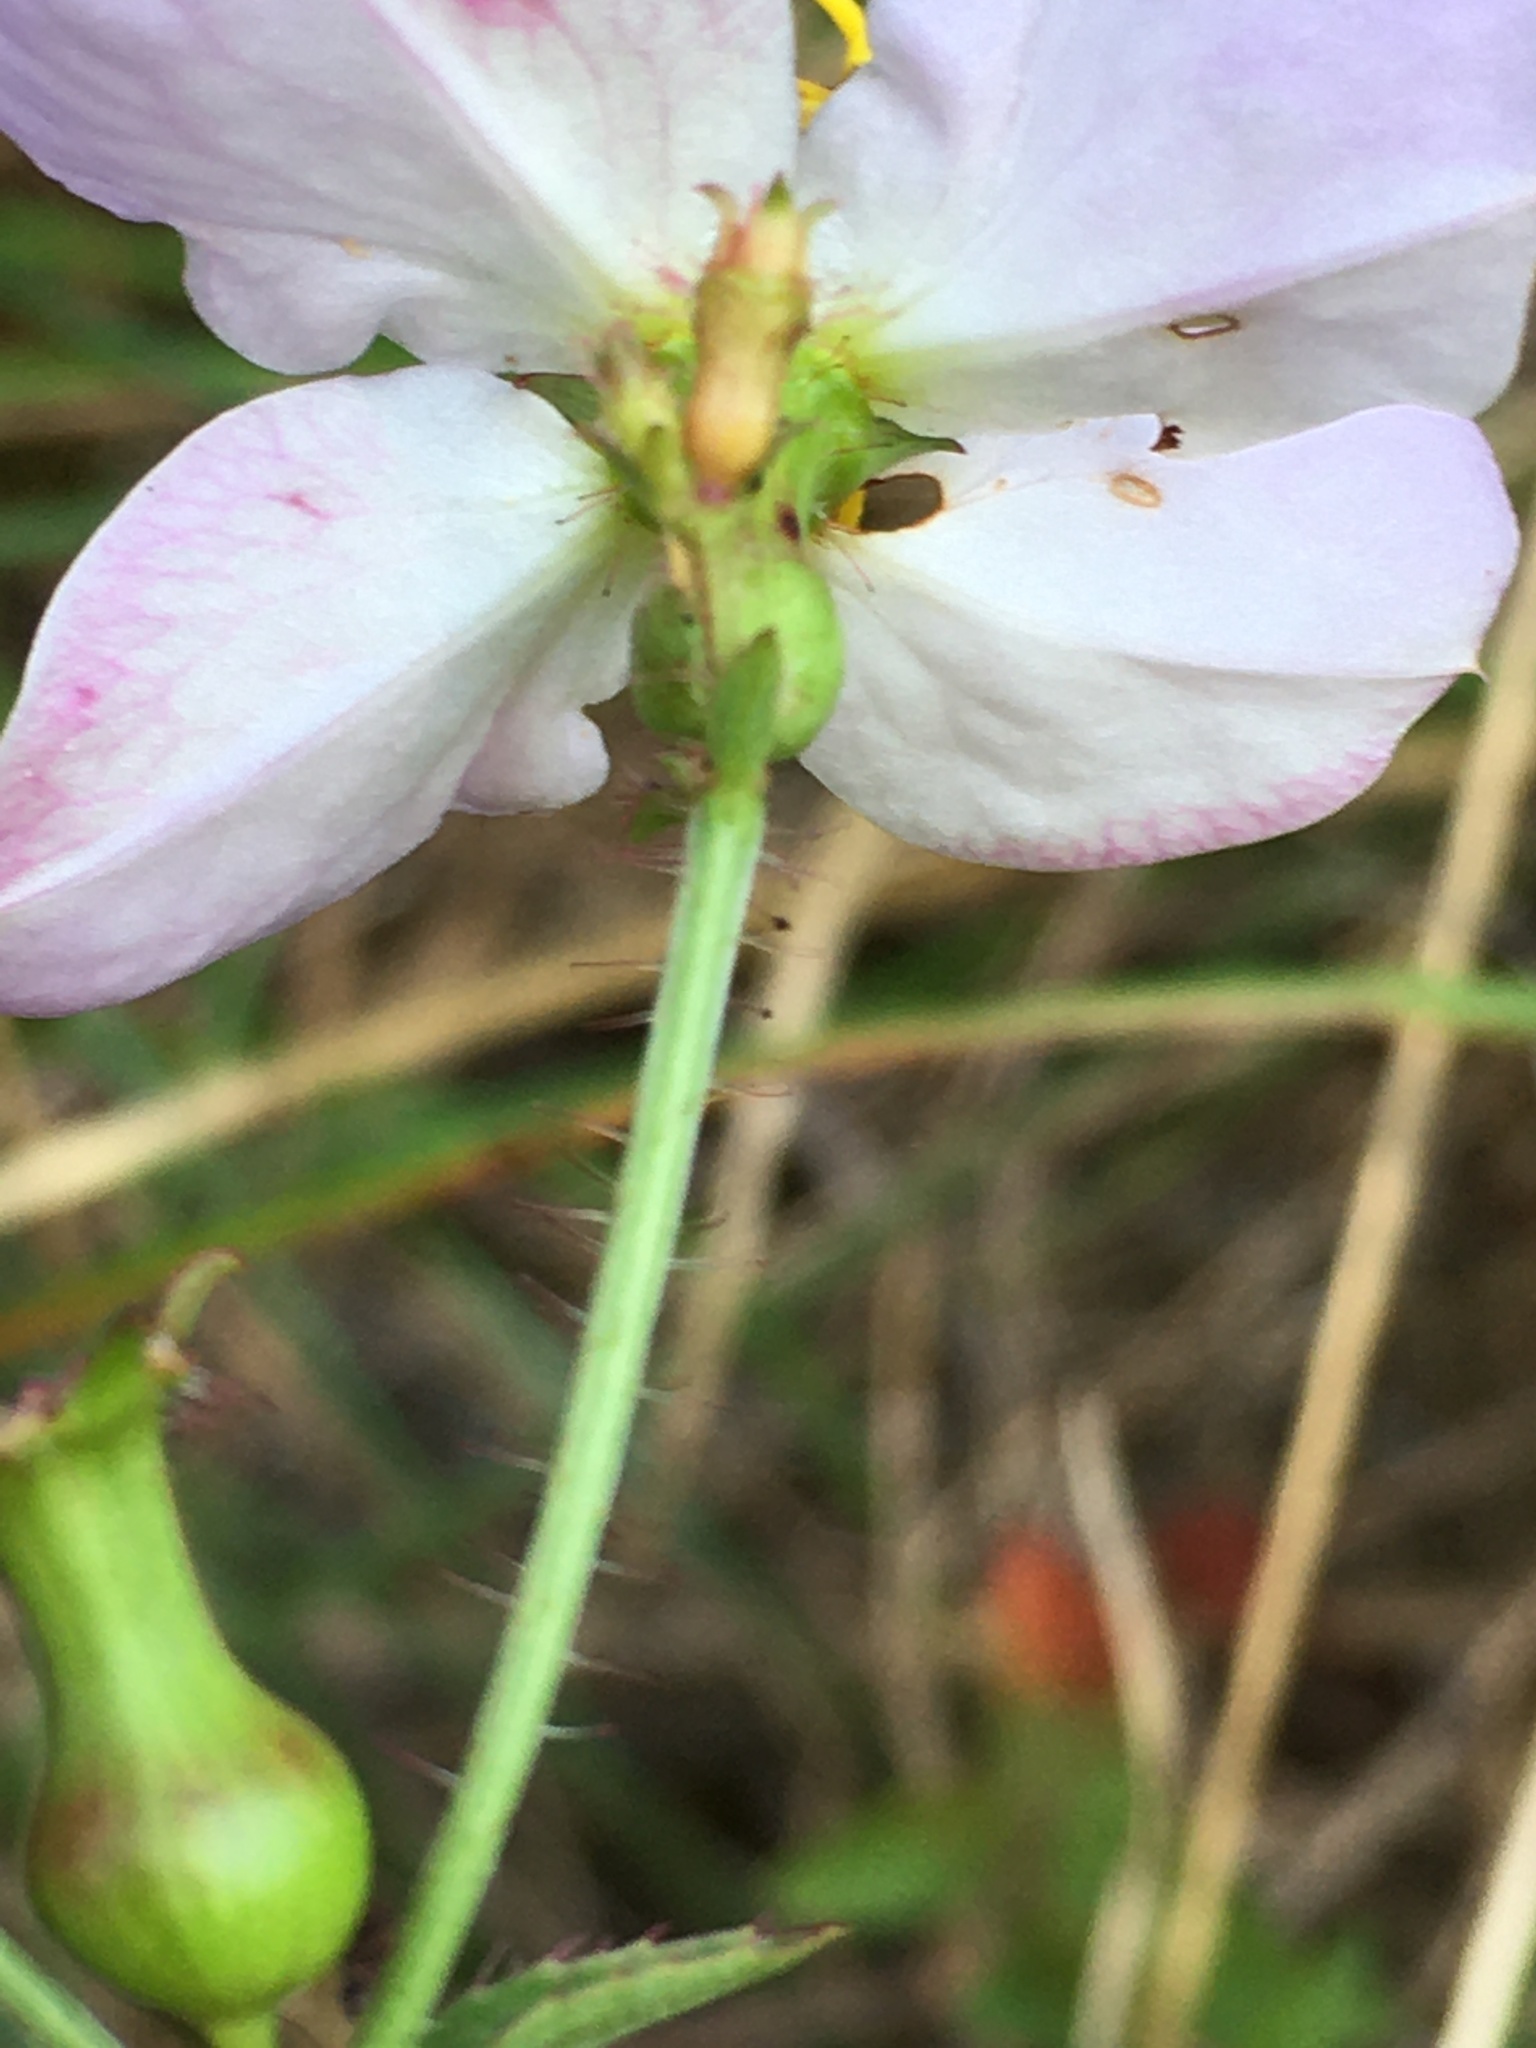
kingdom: Plantae
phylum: Tracheophyta
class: Magnoliopsida
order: Myrtales
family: Melastomataceae
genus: Rhexia
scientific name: Rhexia mariana
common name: Dull meadow-pitcher
